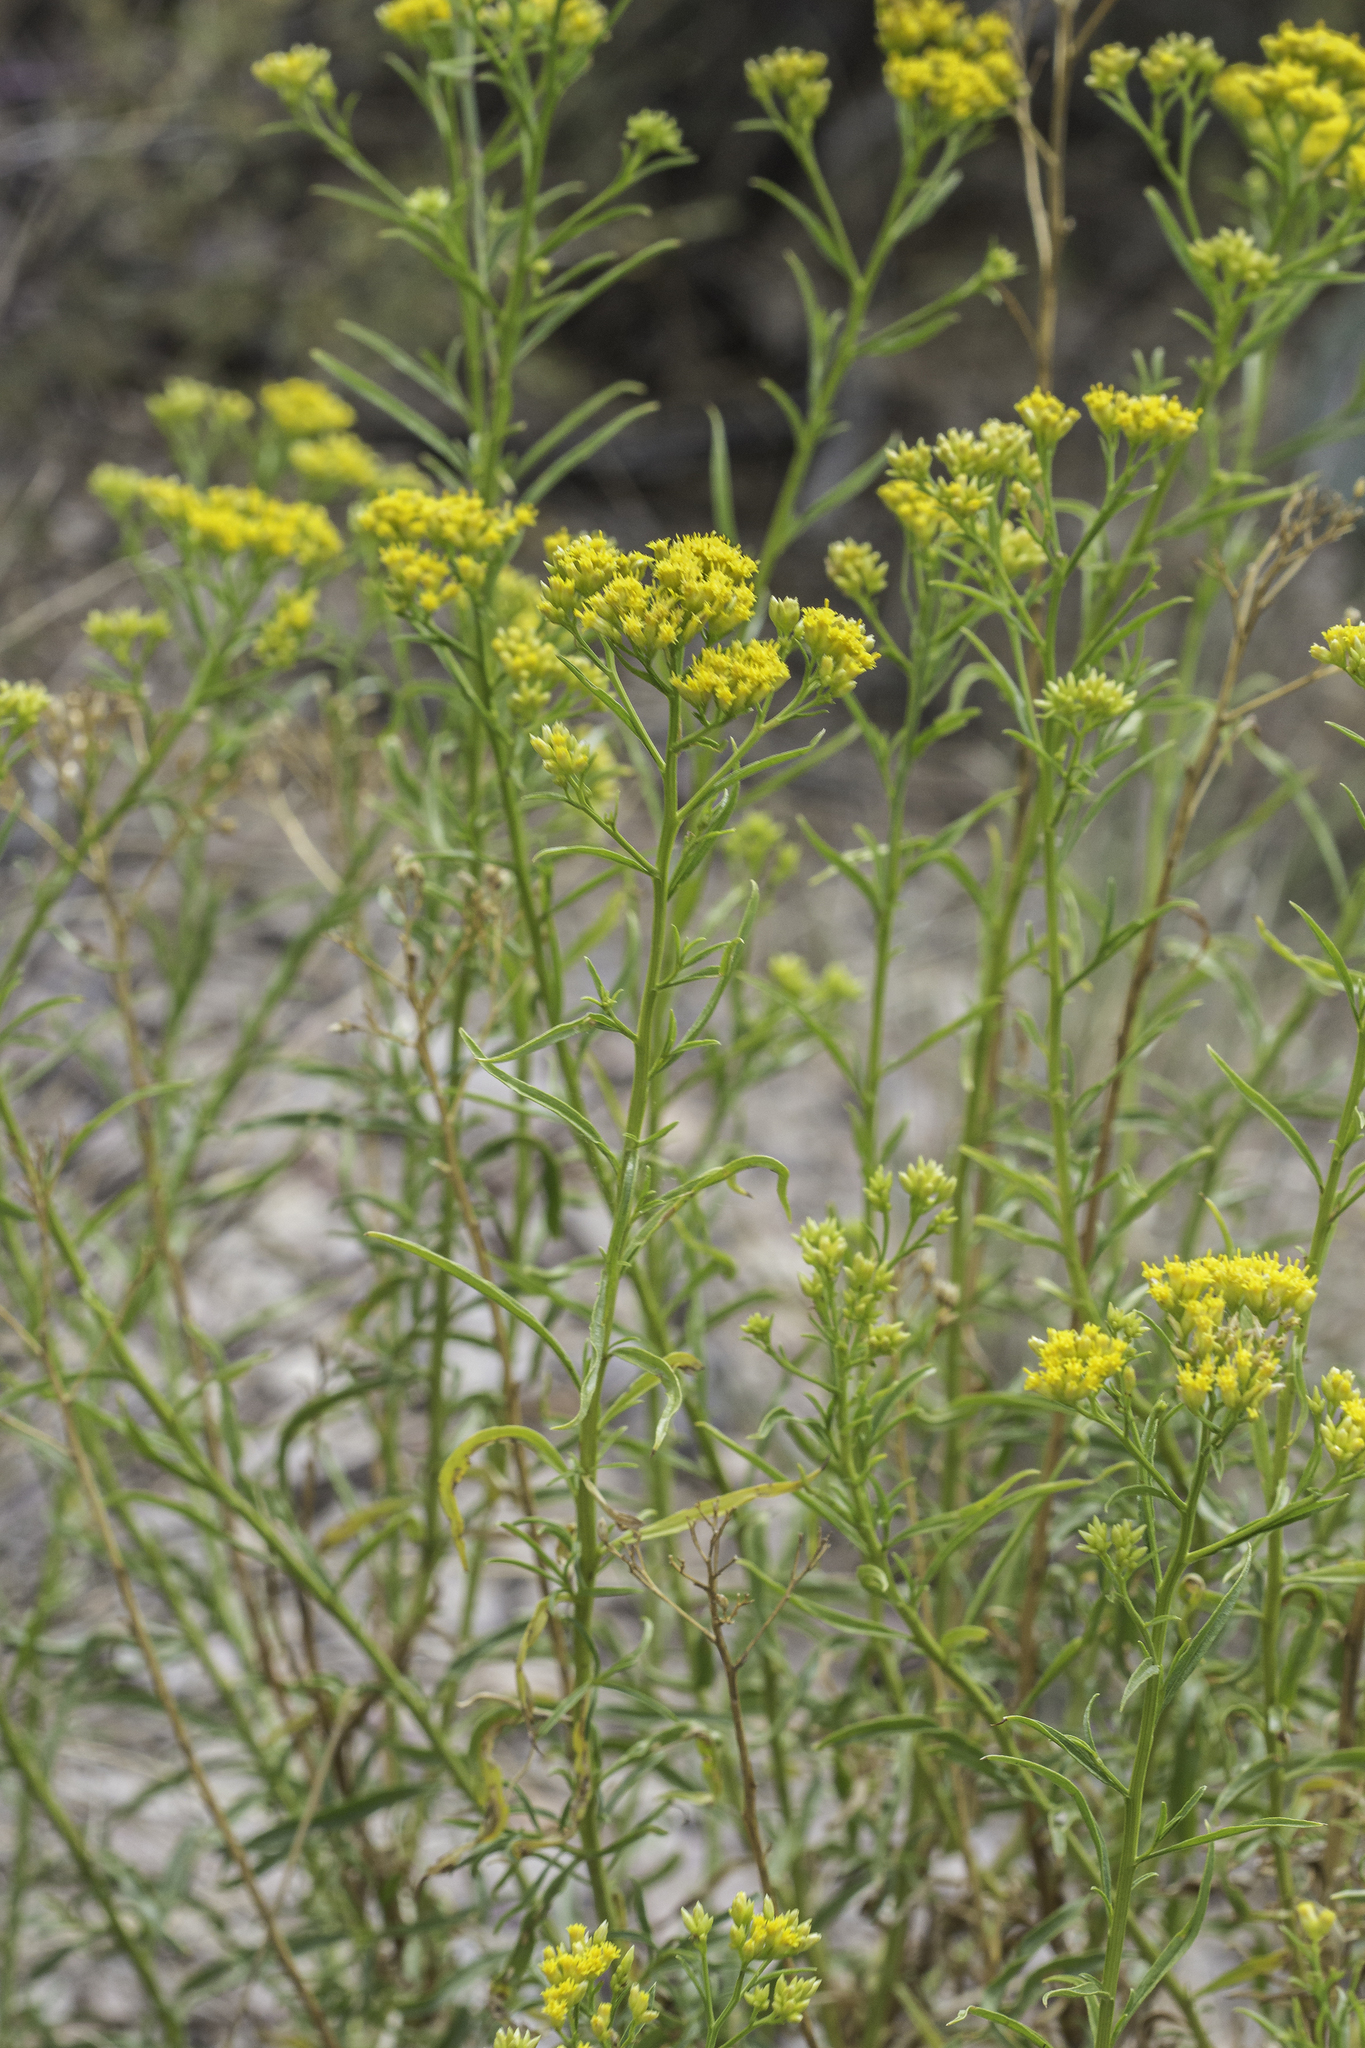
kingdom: Plantae
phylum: Tracheophyta
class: Magnoliopsida
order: Asterales
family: Asteraceae
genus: Gymnosperma
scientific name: Gymnosperma glutinosum
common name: Gumhead
